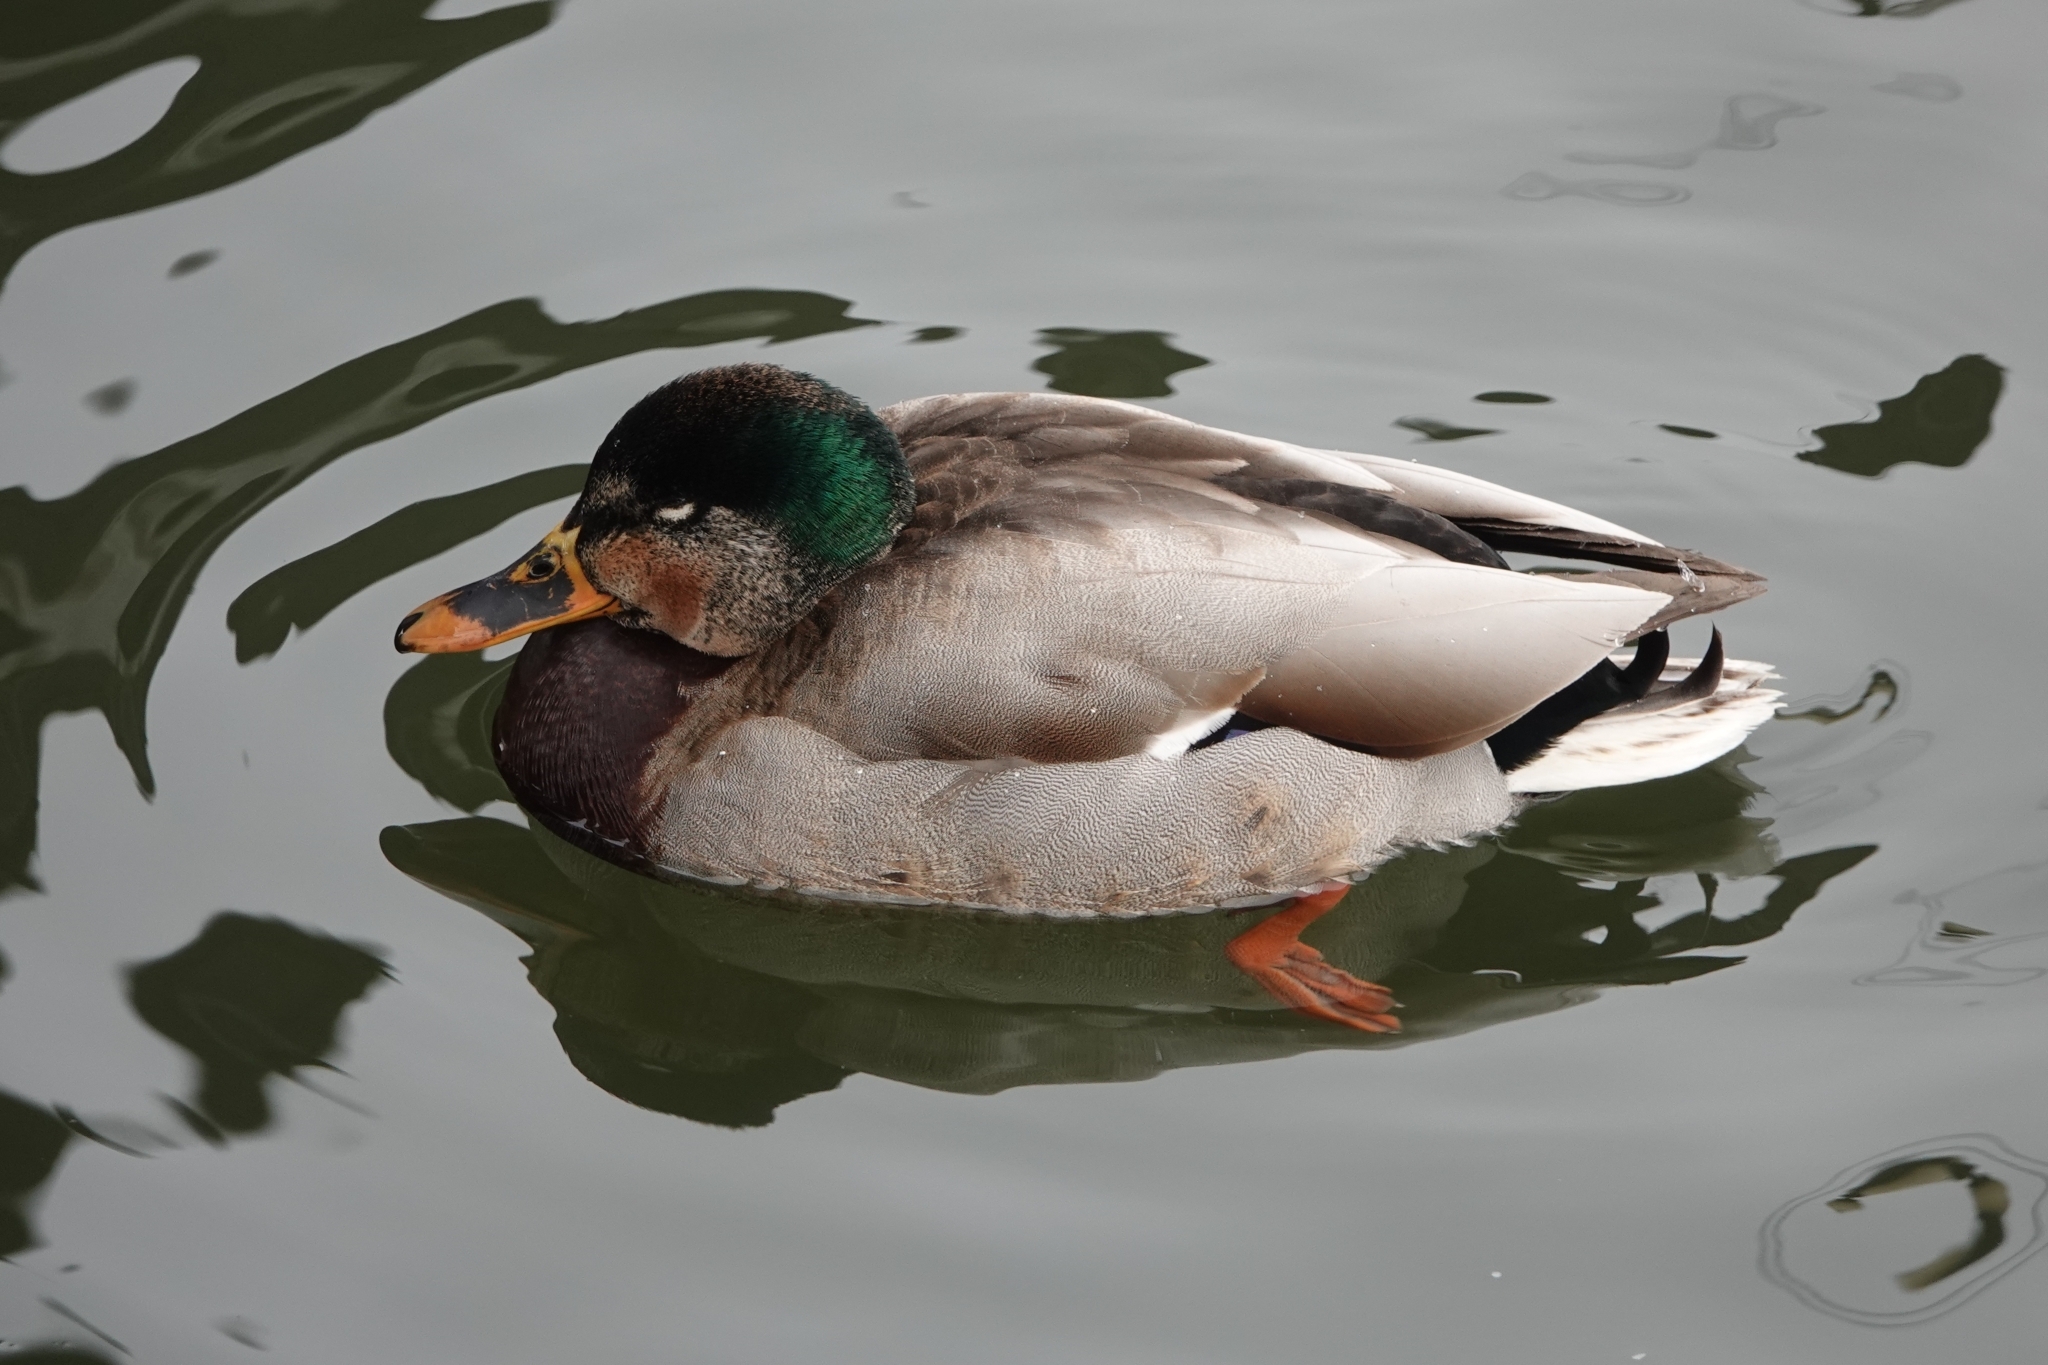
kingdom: Animalia
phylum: Chordata
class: Aves
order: Anseriformes
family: Anatidae
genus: Anas
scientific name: Anas platyrhynchos
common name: Mallard
